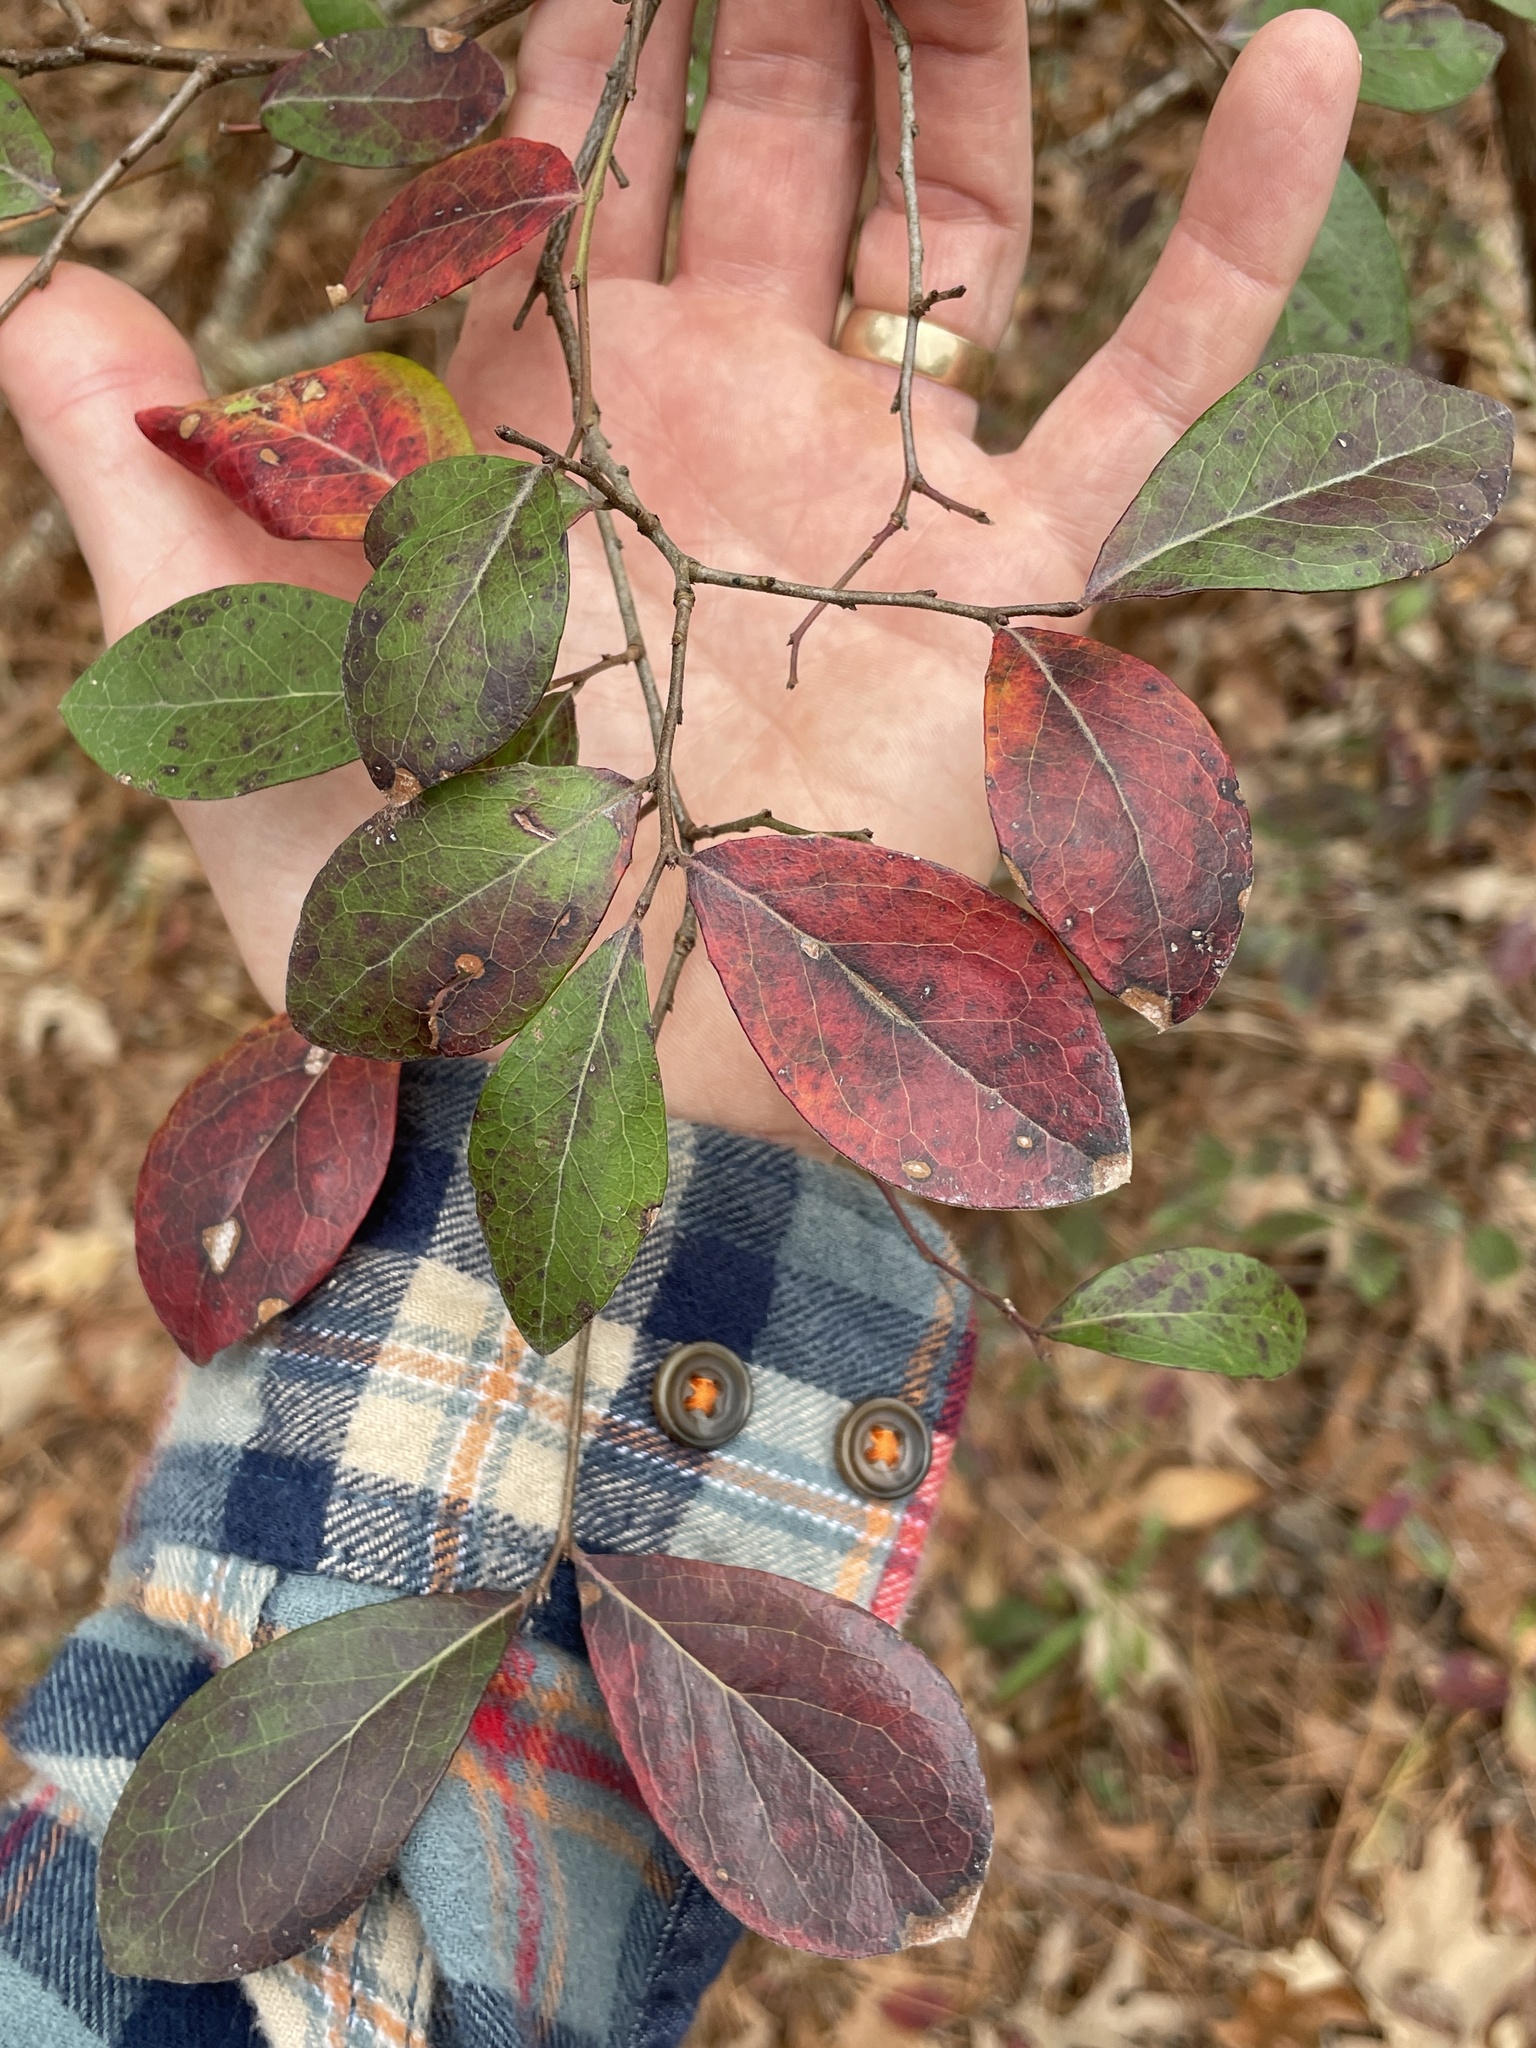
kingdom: Plantae
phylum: Tracheophyta
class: Magnoliopsida
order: Ericales
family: Ericaceae
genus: Vaccinium
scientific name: Vaccinium arboreum
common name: Farkleberry
